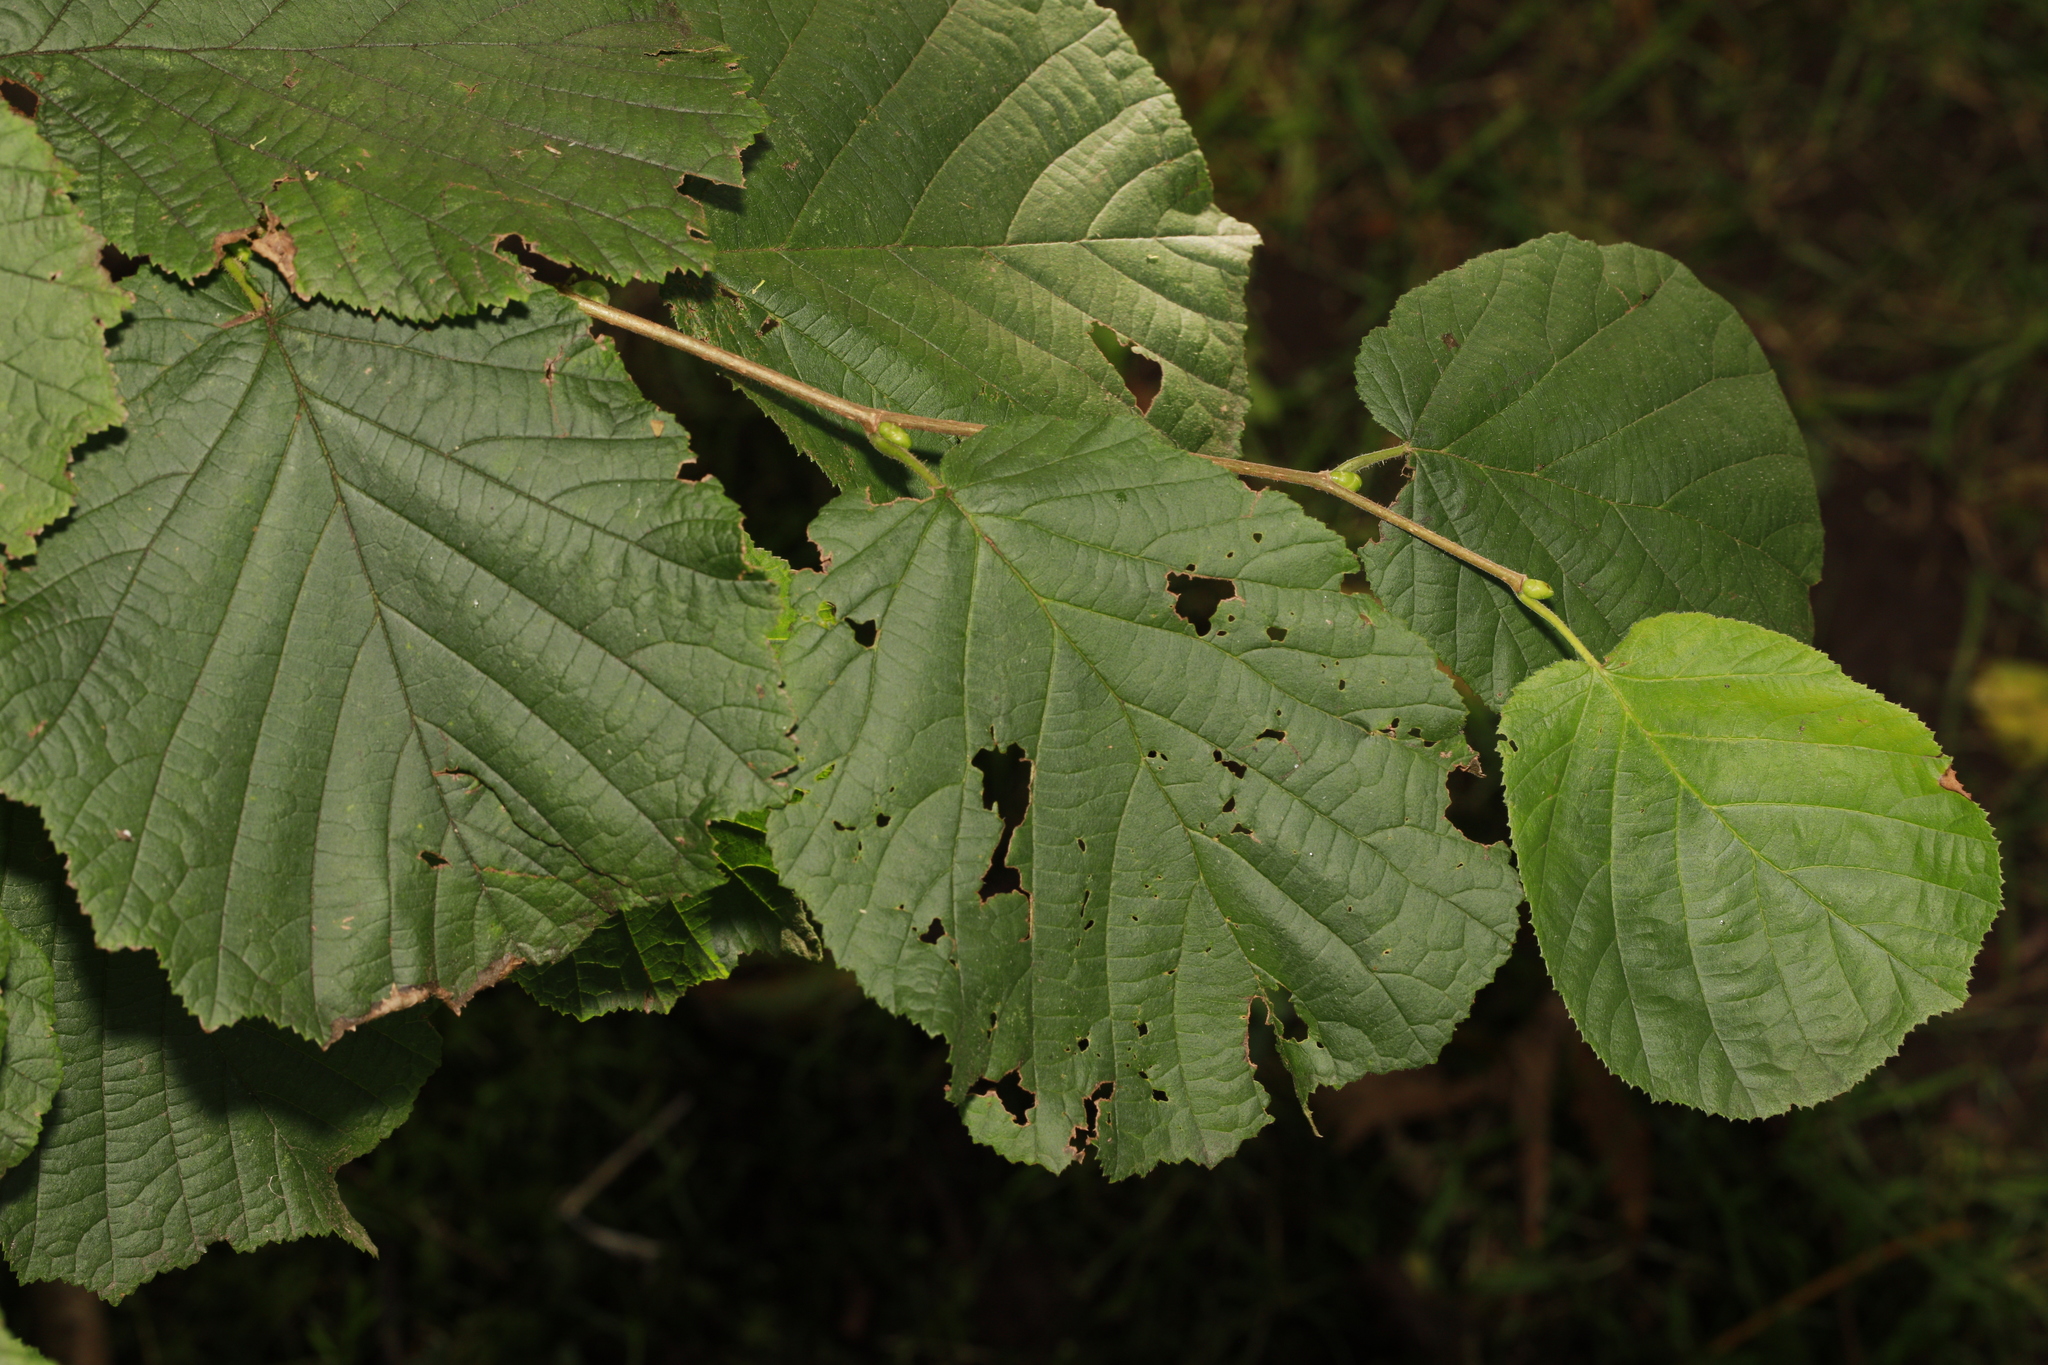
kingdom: Plantae
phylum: Tracheophyta
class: Magnoliopsida
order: Fagales
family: Betulaceae
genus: Corylus
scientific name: Corylus avellana
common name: European hazel
